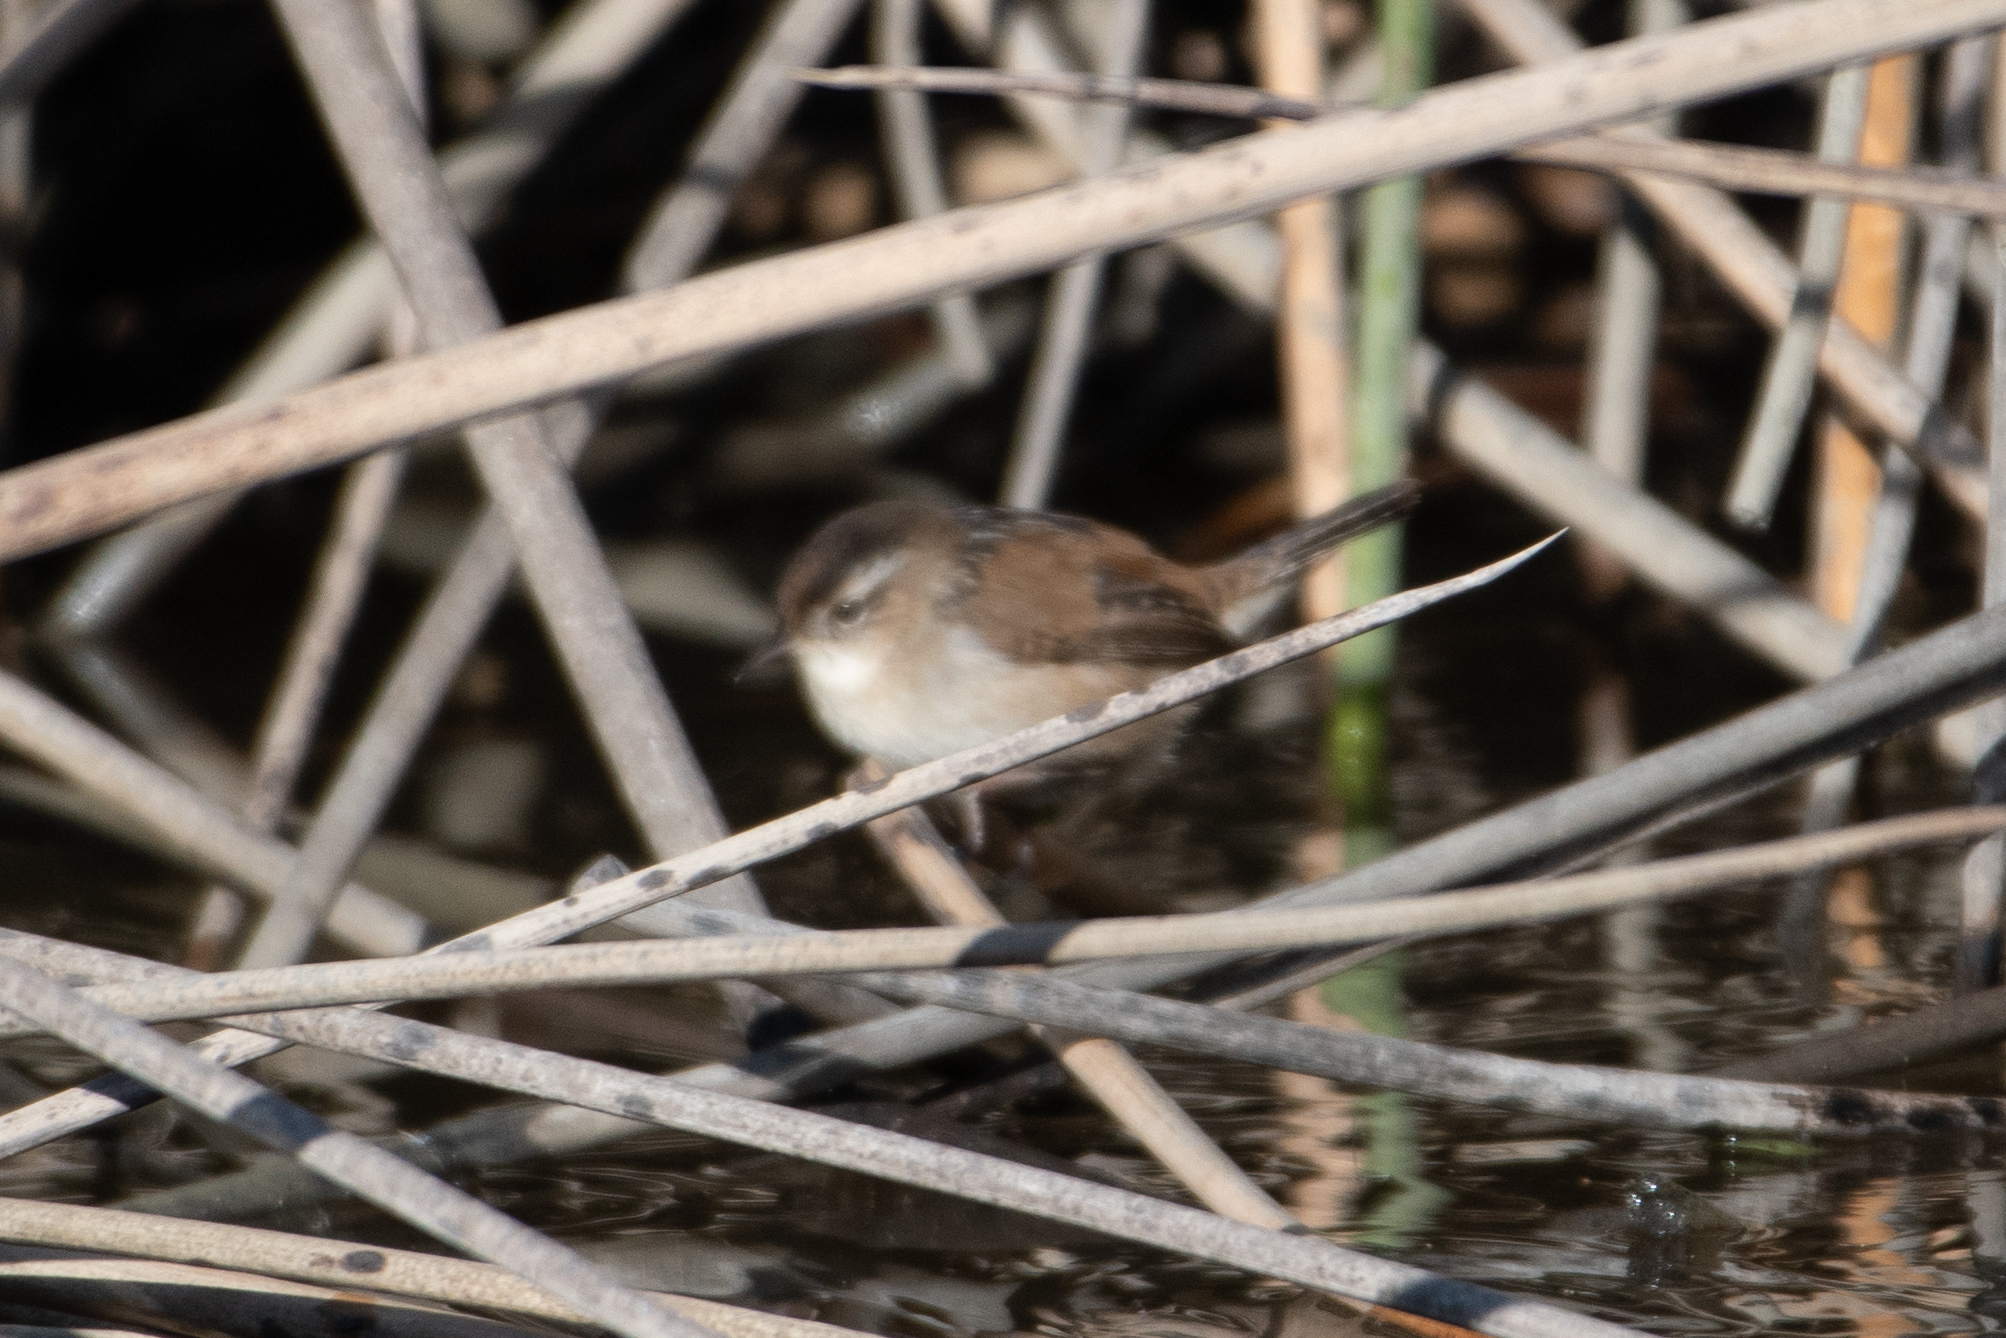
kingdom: Animalia
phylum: Chordata
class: Aves
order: Passeriformes
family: Troglodytidae
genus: Cistothorus
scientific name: Cistothorus palustris
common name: Marsh wren
